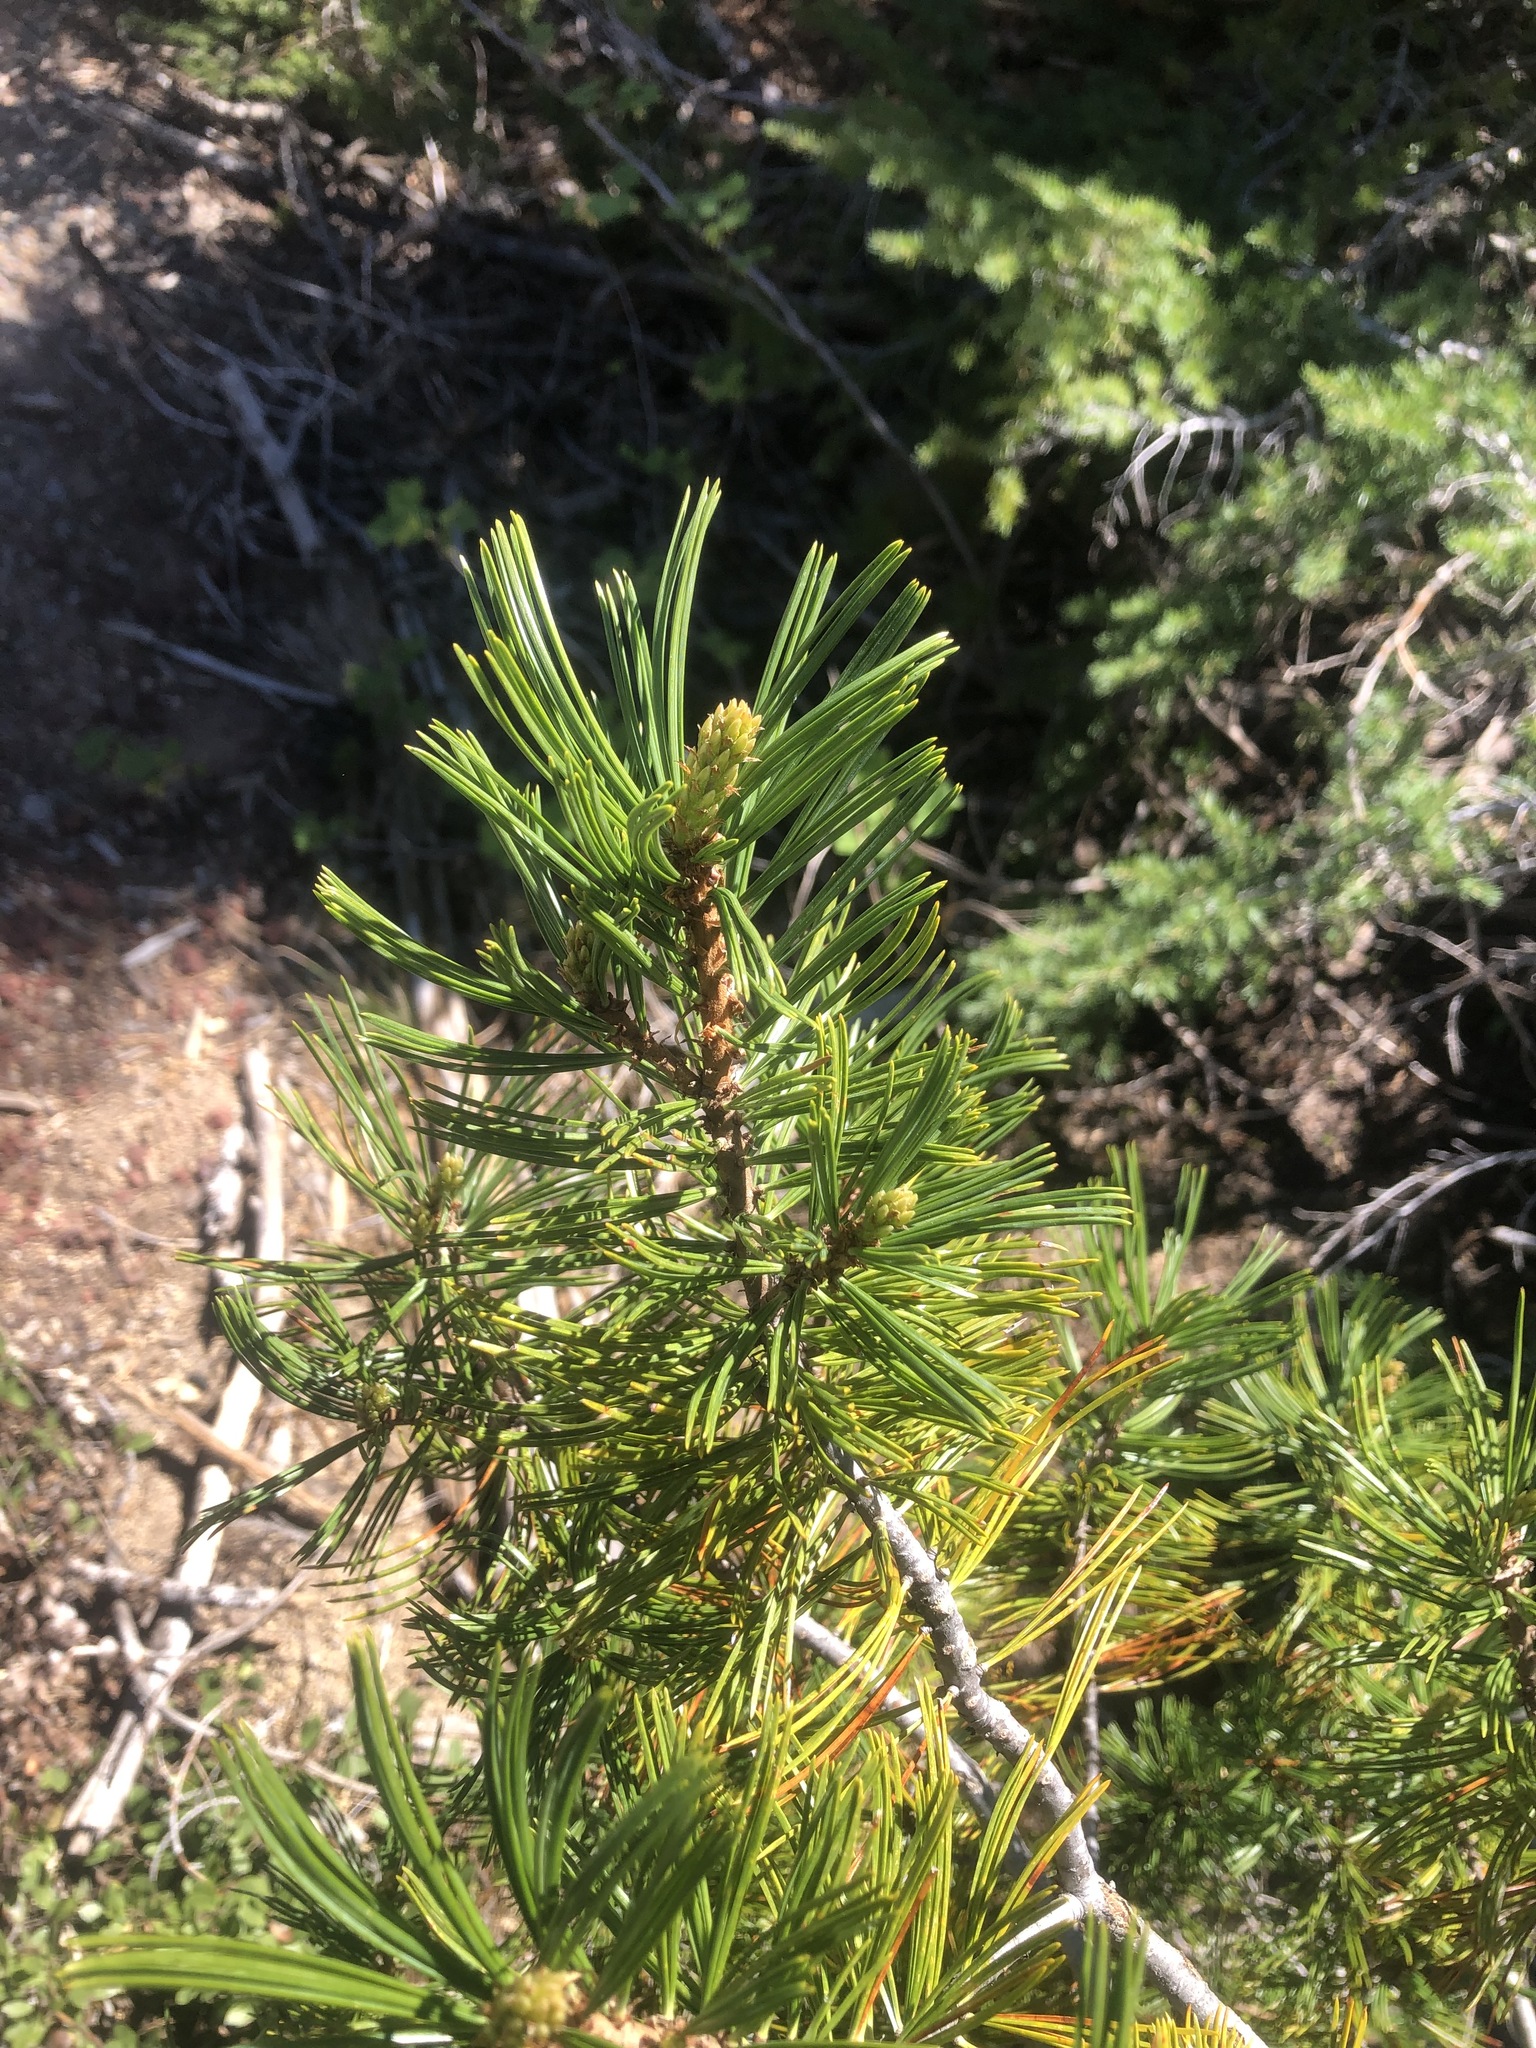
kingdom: Plantae
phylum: Tracheophyta
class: Pinopsida
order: Pinales
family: Pinaceae
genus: Pinus
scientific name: Pinus albicaulis
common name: Whitebark pine
